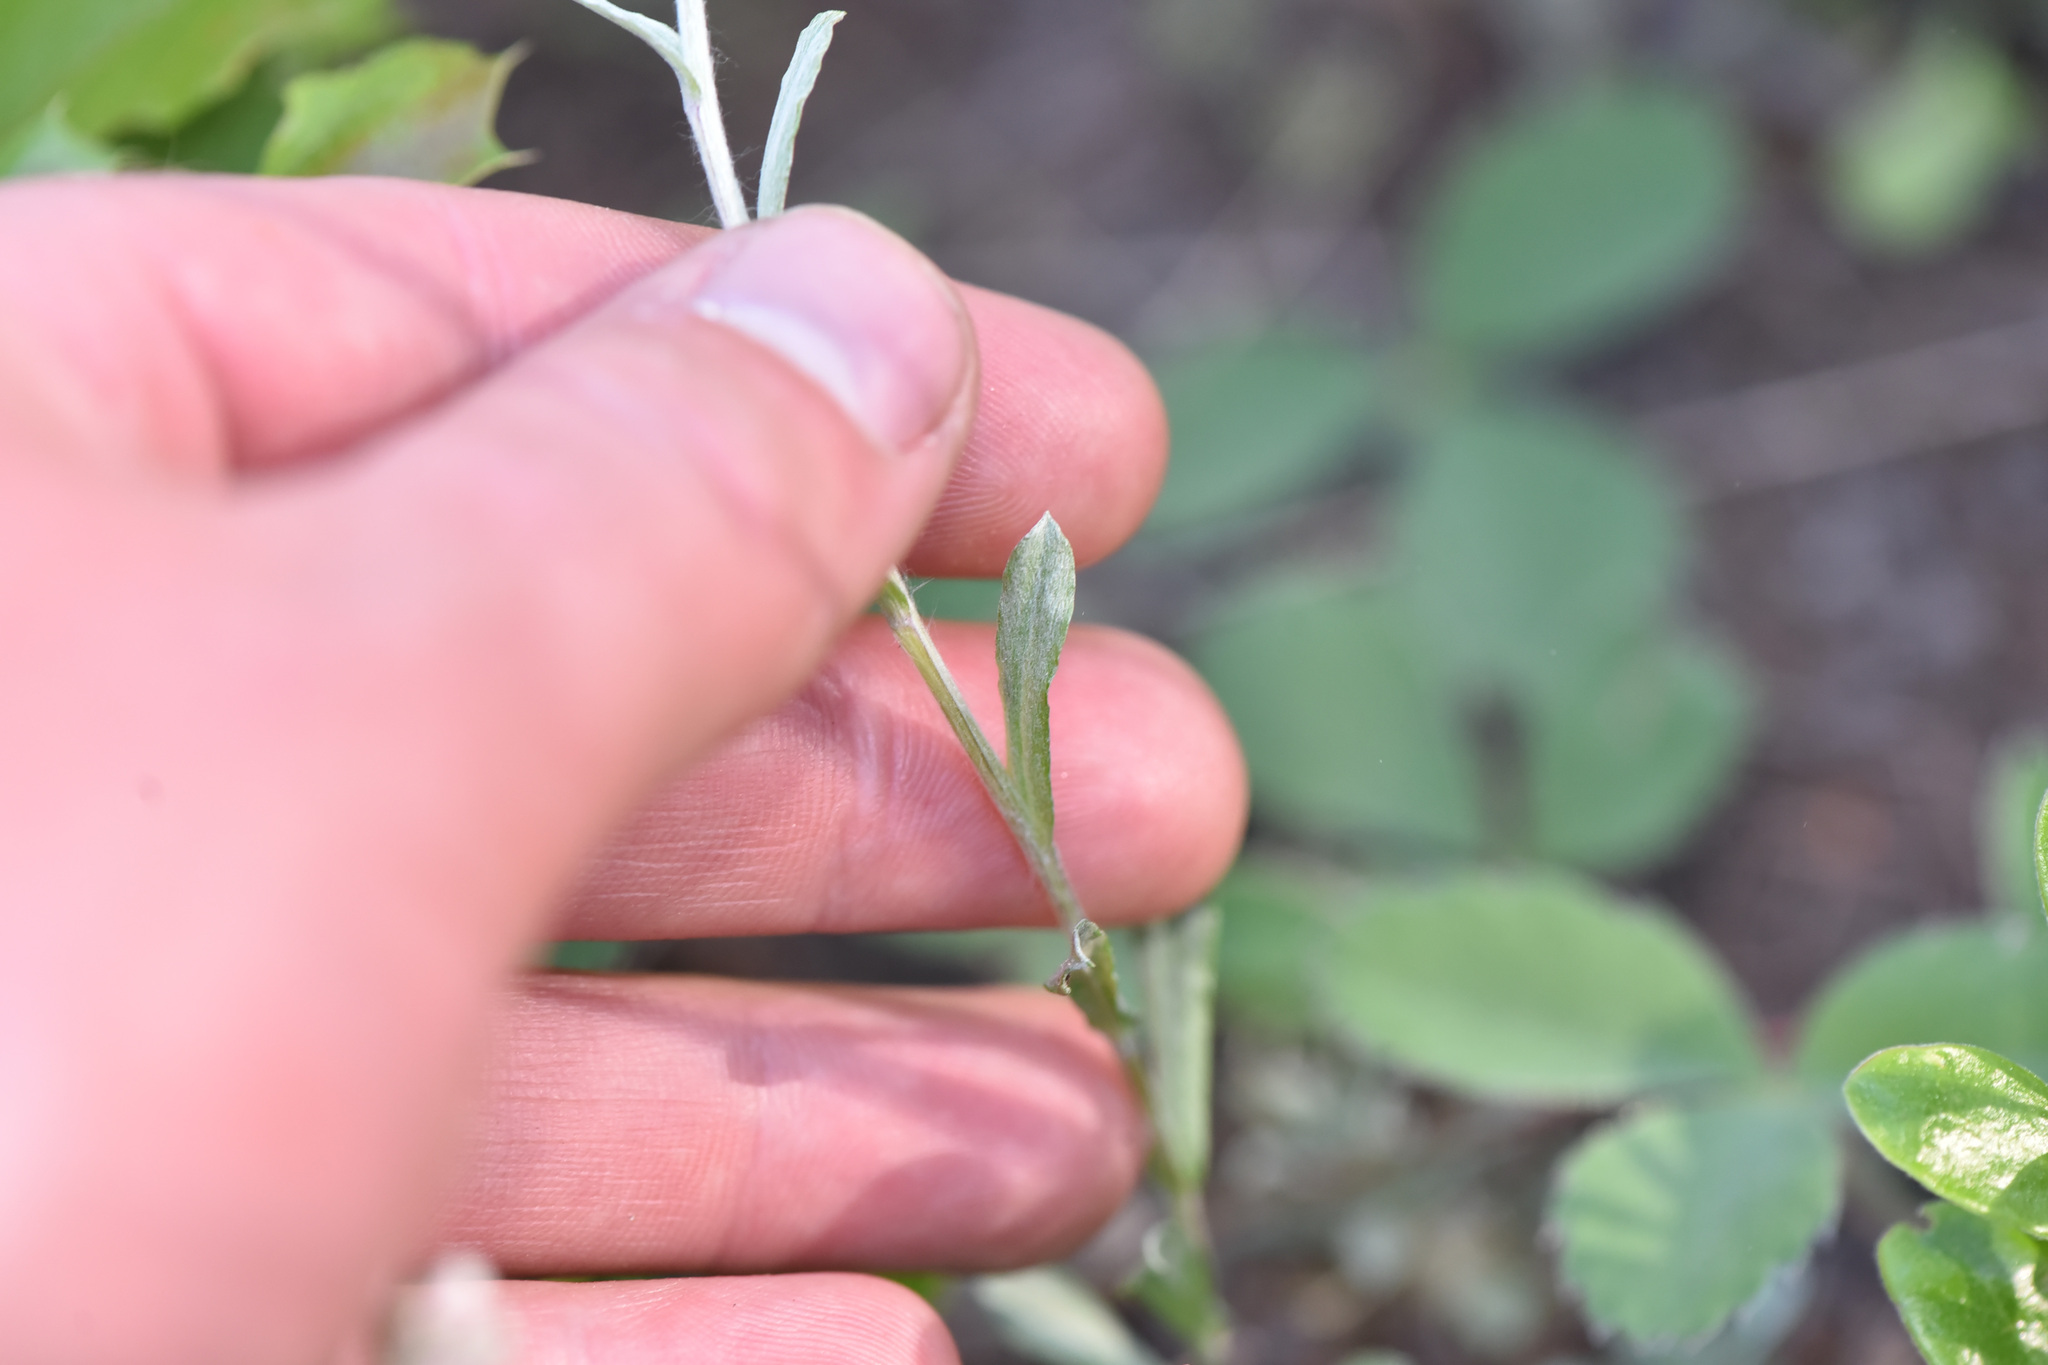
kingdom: Plantae
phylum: Tracheophyta
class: Magnoliopsida
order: Asterales
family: Asteraceae
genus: Antennaria
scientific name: Antennaria rosea
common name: Rosy pussytoes
